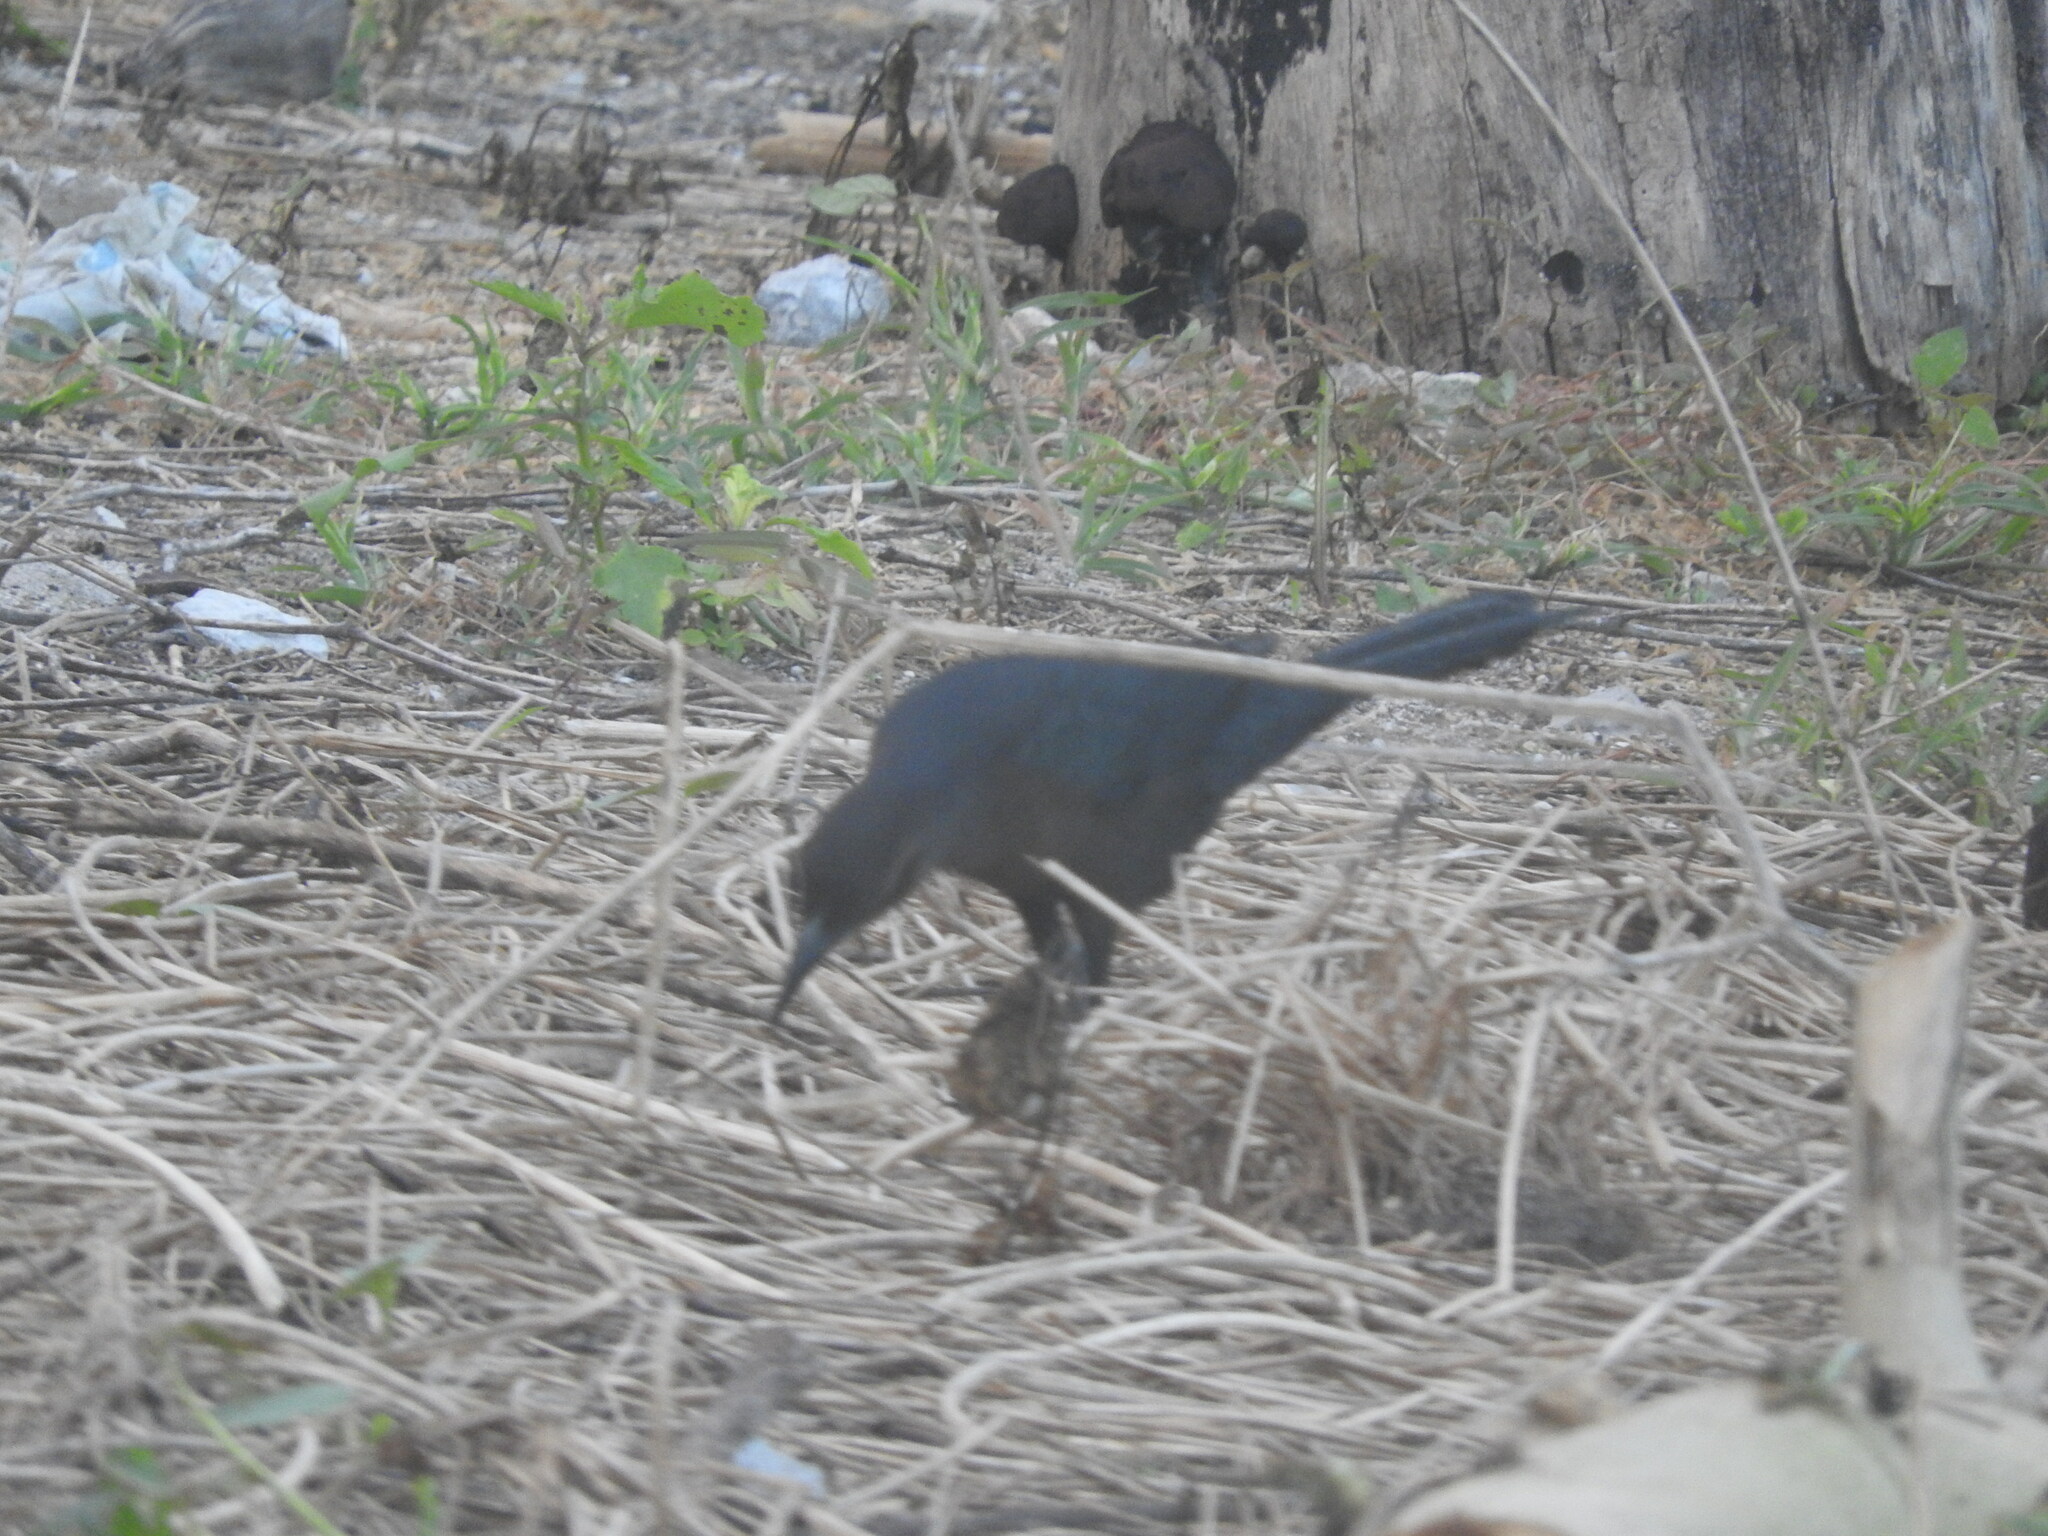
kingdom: Animalia
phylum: Chordata
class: Aves
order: Passeriformes
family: Icteridae
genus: Quiscalus
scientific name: Quiscalus mexicanus
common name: Great-tailed grackle
